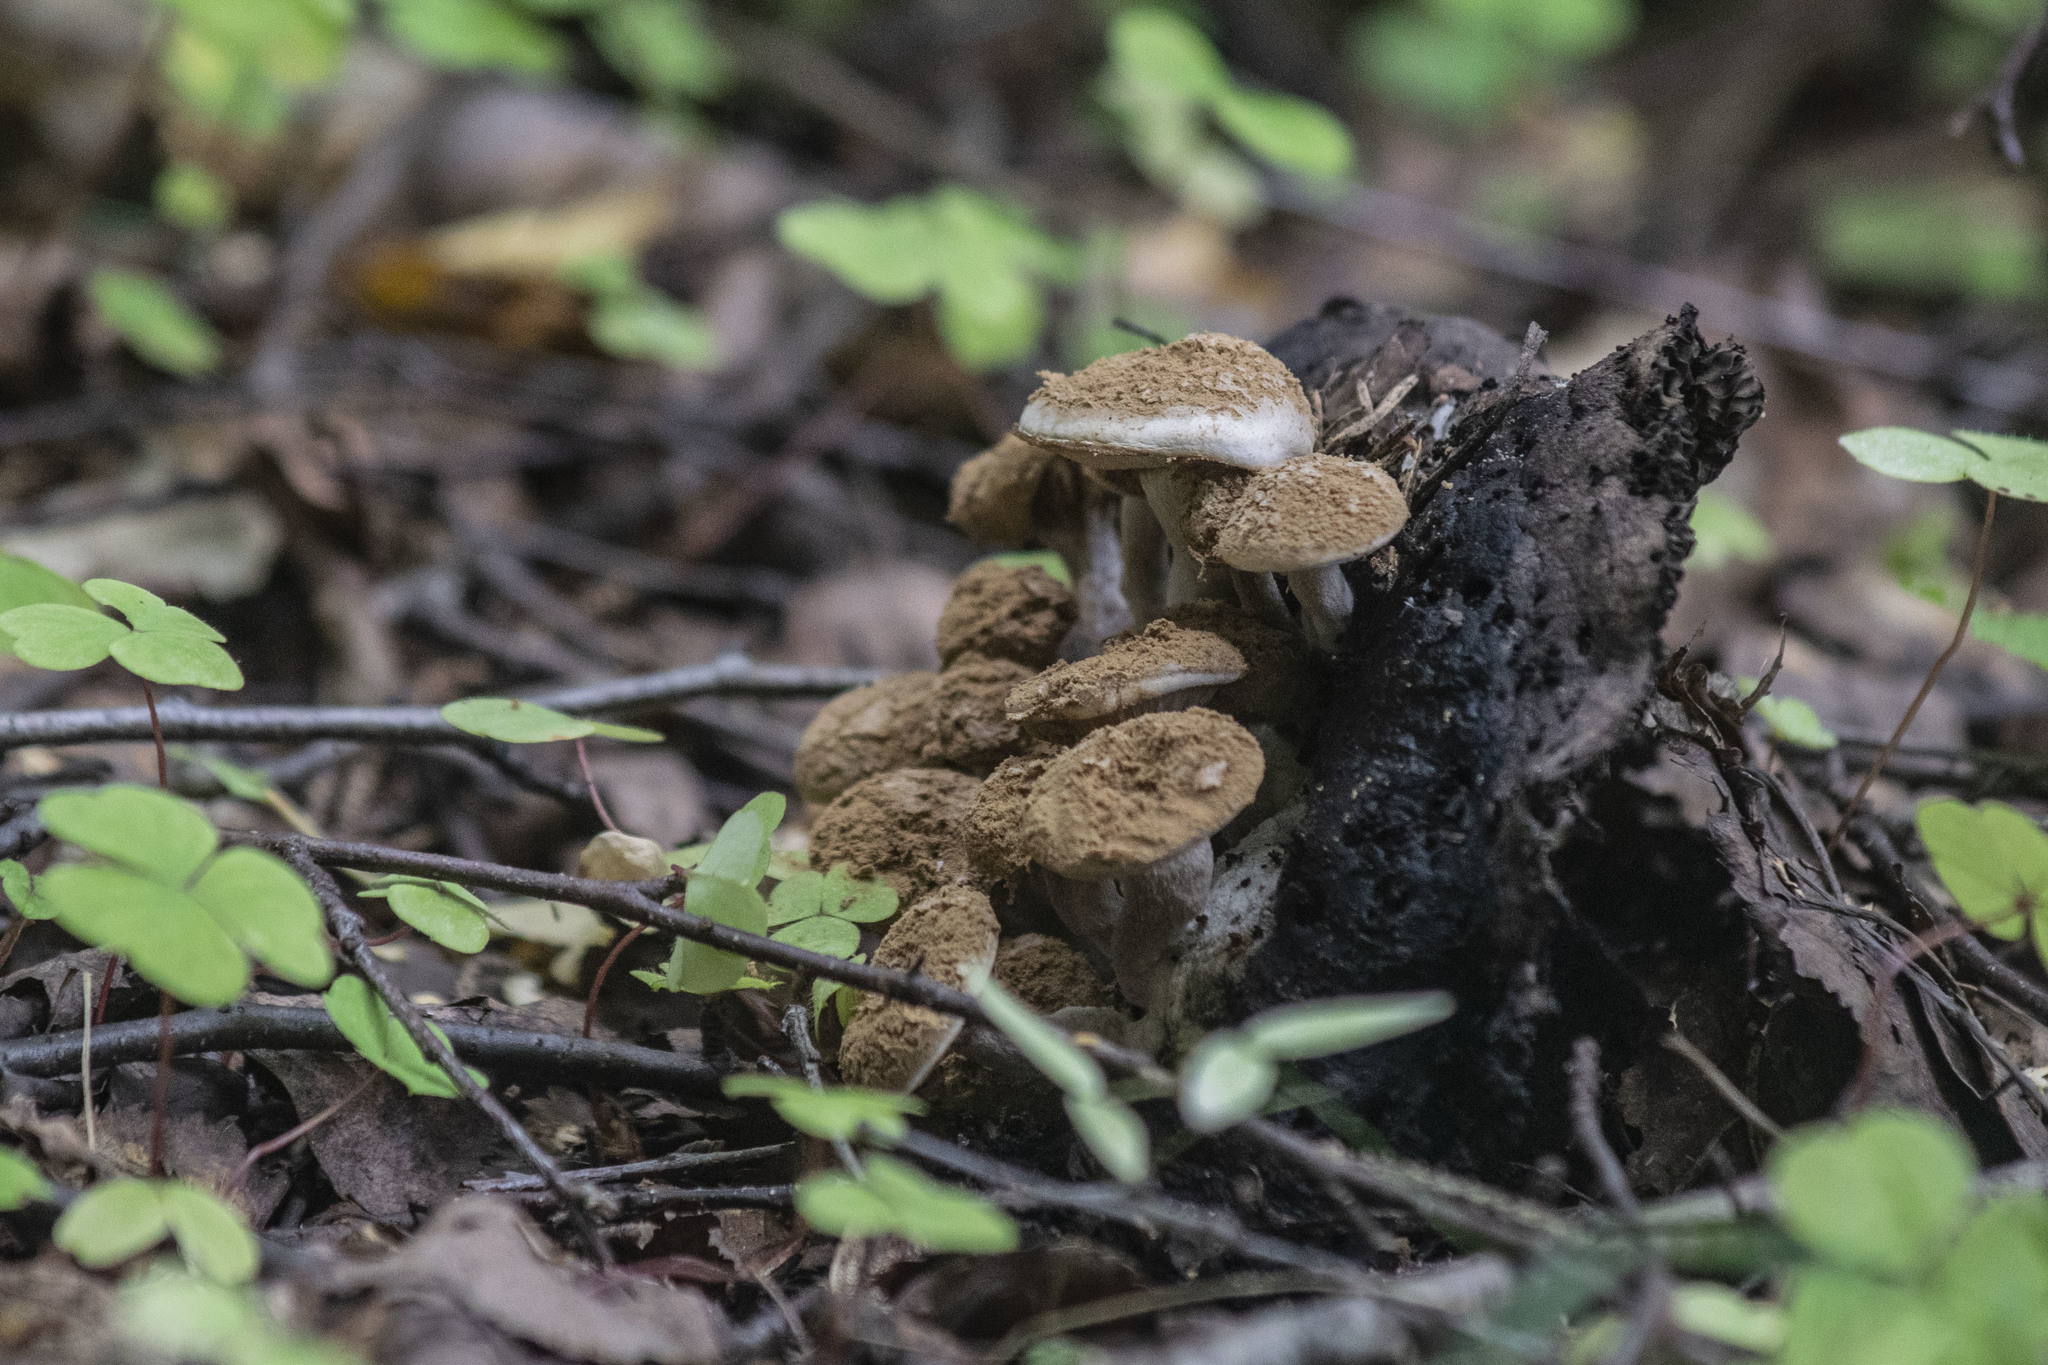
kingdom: Fungi
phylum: Basidiomycota
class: Agaricomycetes
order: Agaricales
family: Lyophyllaceae
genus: Asterophora
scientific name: Asterophora lycoperdoides
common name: Pick-a-back toadstool
